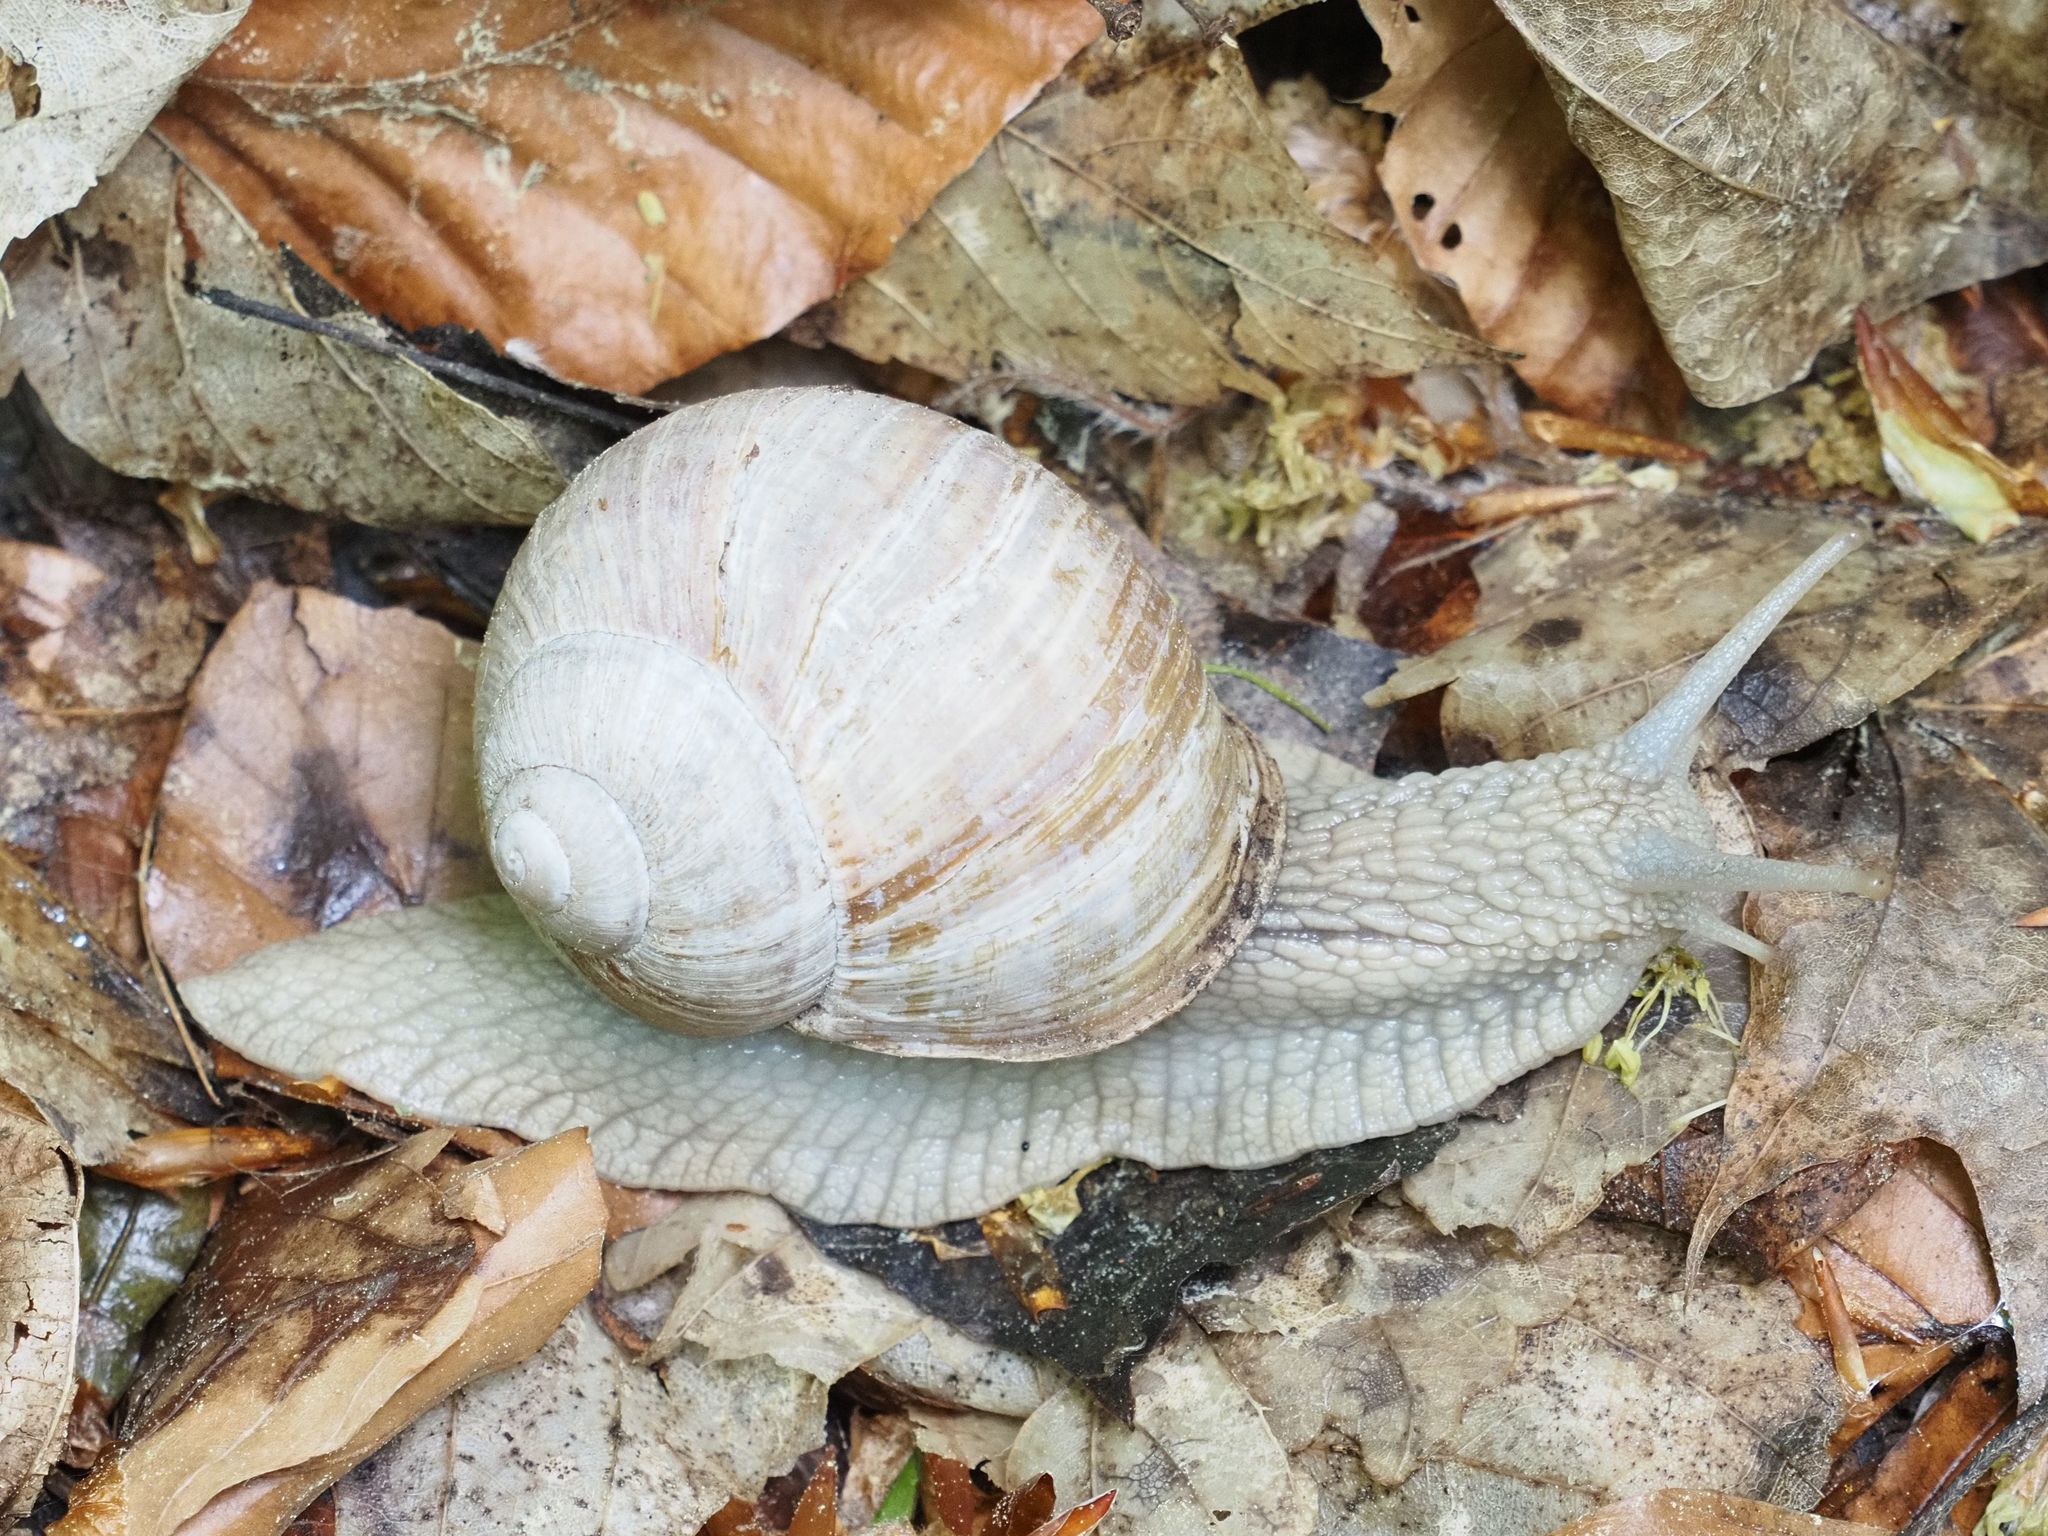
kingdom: Animalia
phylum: Mollusca
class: Gastropoda
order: Stylommatophora
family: Helicidae
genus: Helix
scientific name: Helix pomatia
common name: Roman snail
